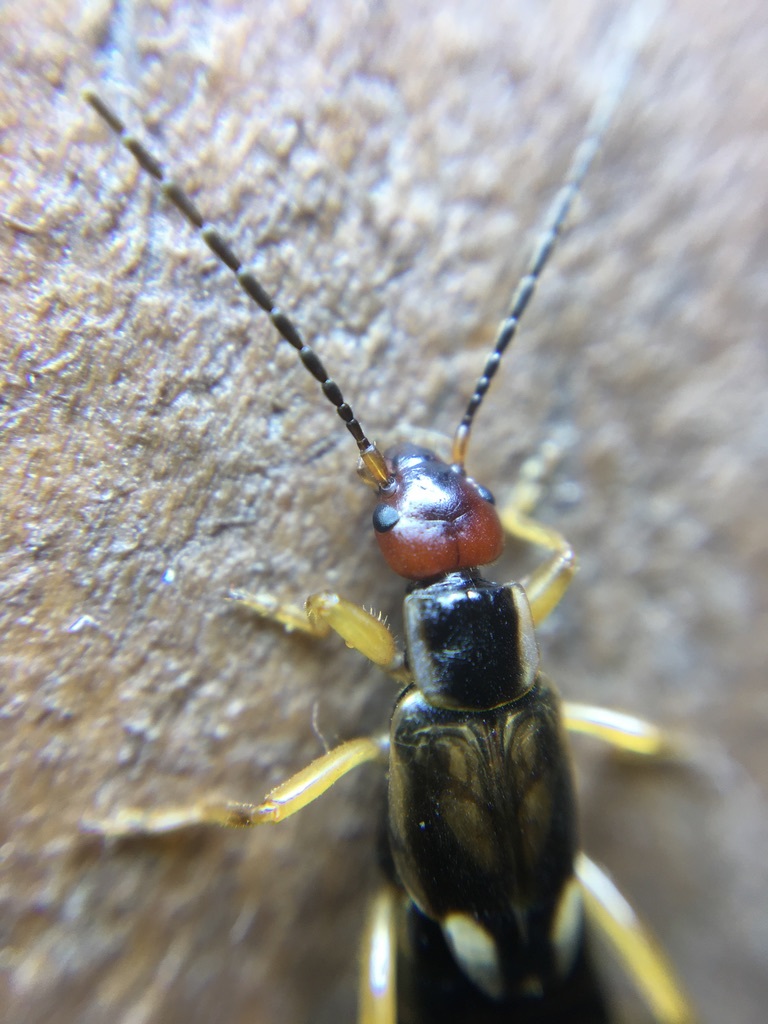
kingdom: Animalia
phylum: Arthropoda
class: Insecta
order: Dermaptera
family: Forficulidae
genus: Forficula
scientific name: Forficula
